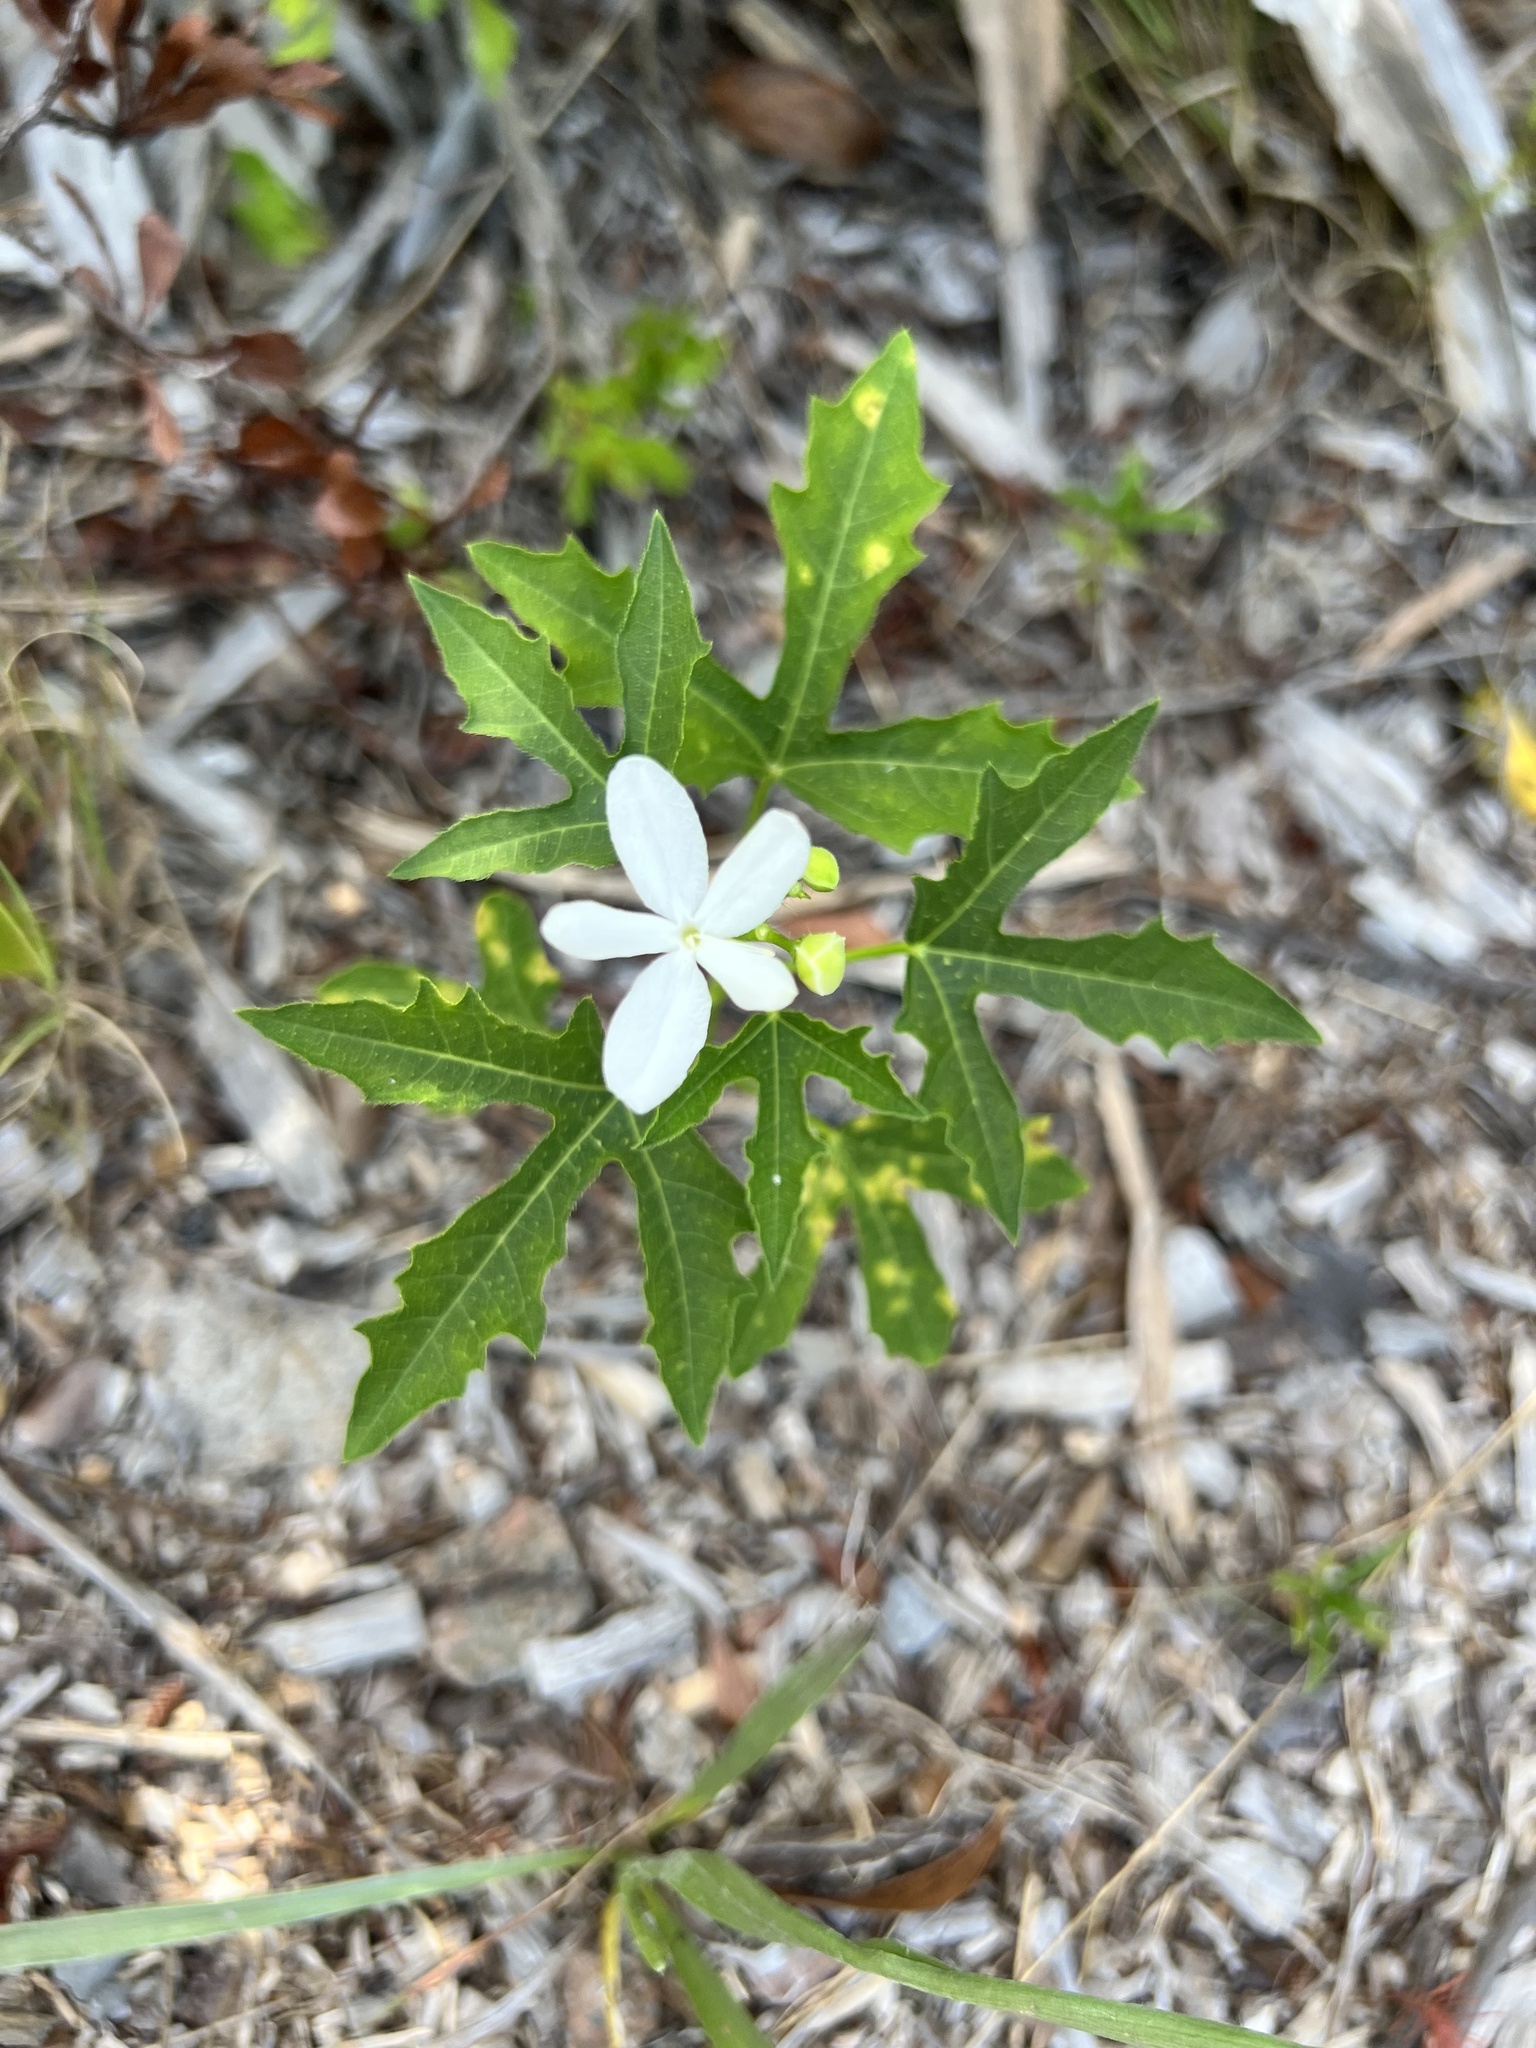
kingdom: Plantae
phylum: Tracheophyta
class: Magnoliopsida
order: Malpighiales
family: Euphorbiaceae
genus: Cnidoscolus
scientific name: Cnidoscolus stimulosus
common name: Bull-nettle
